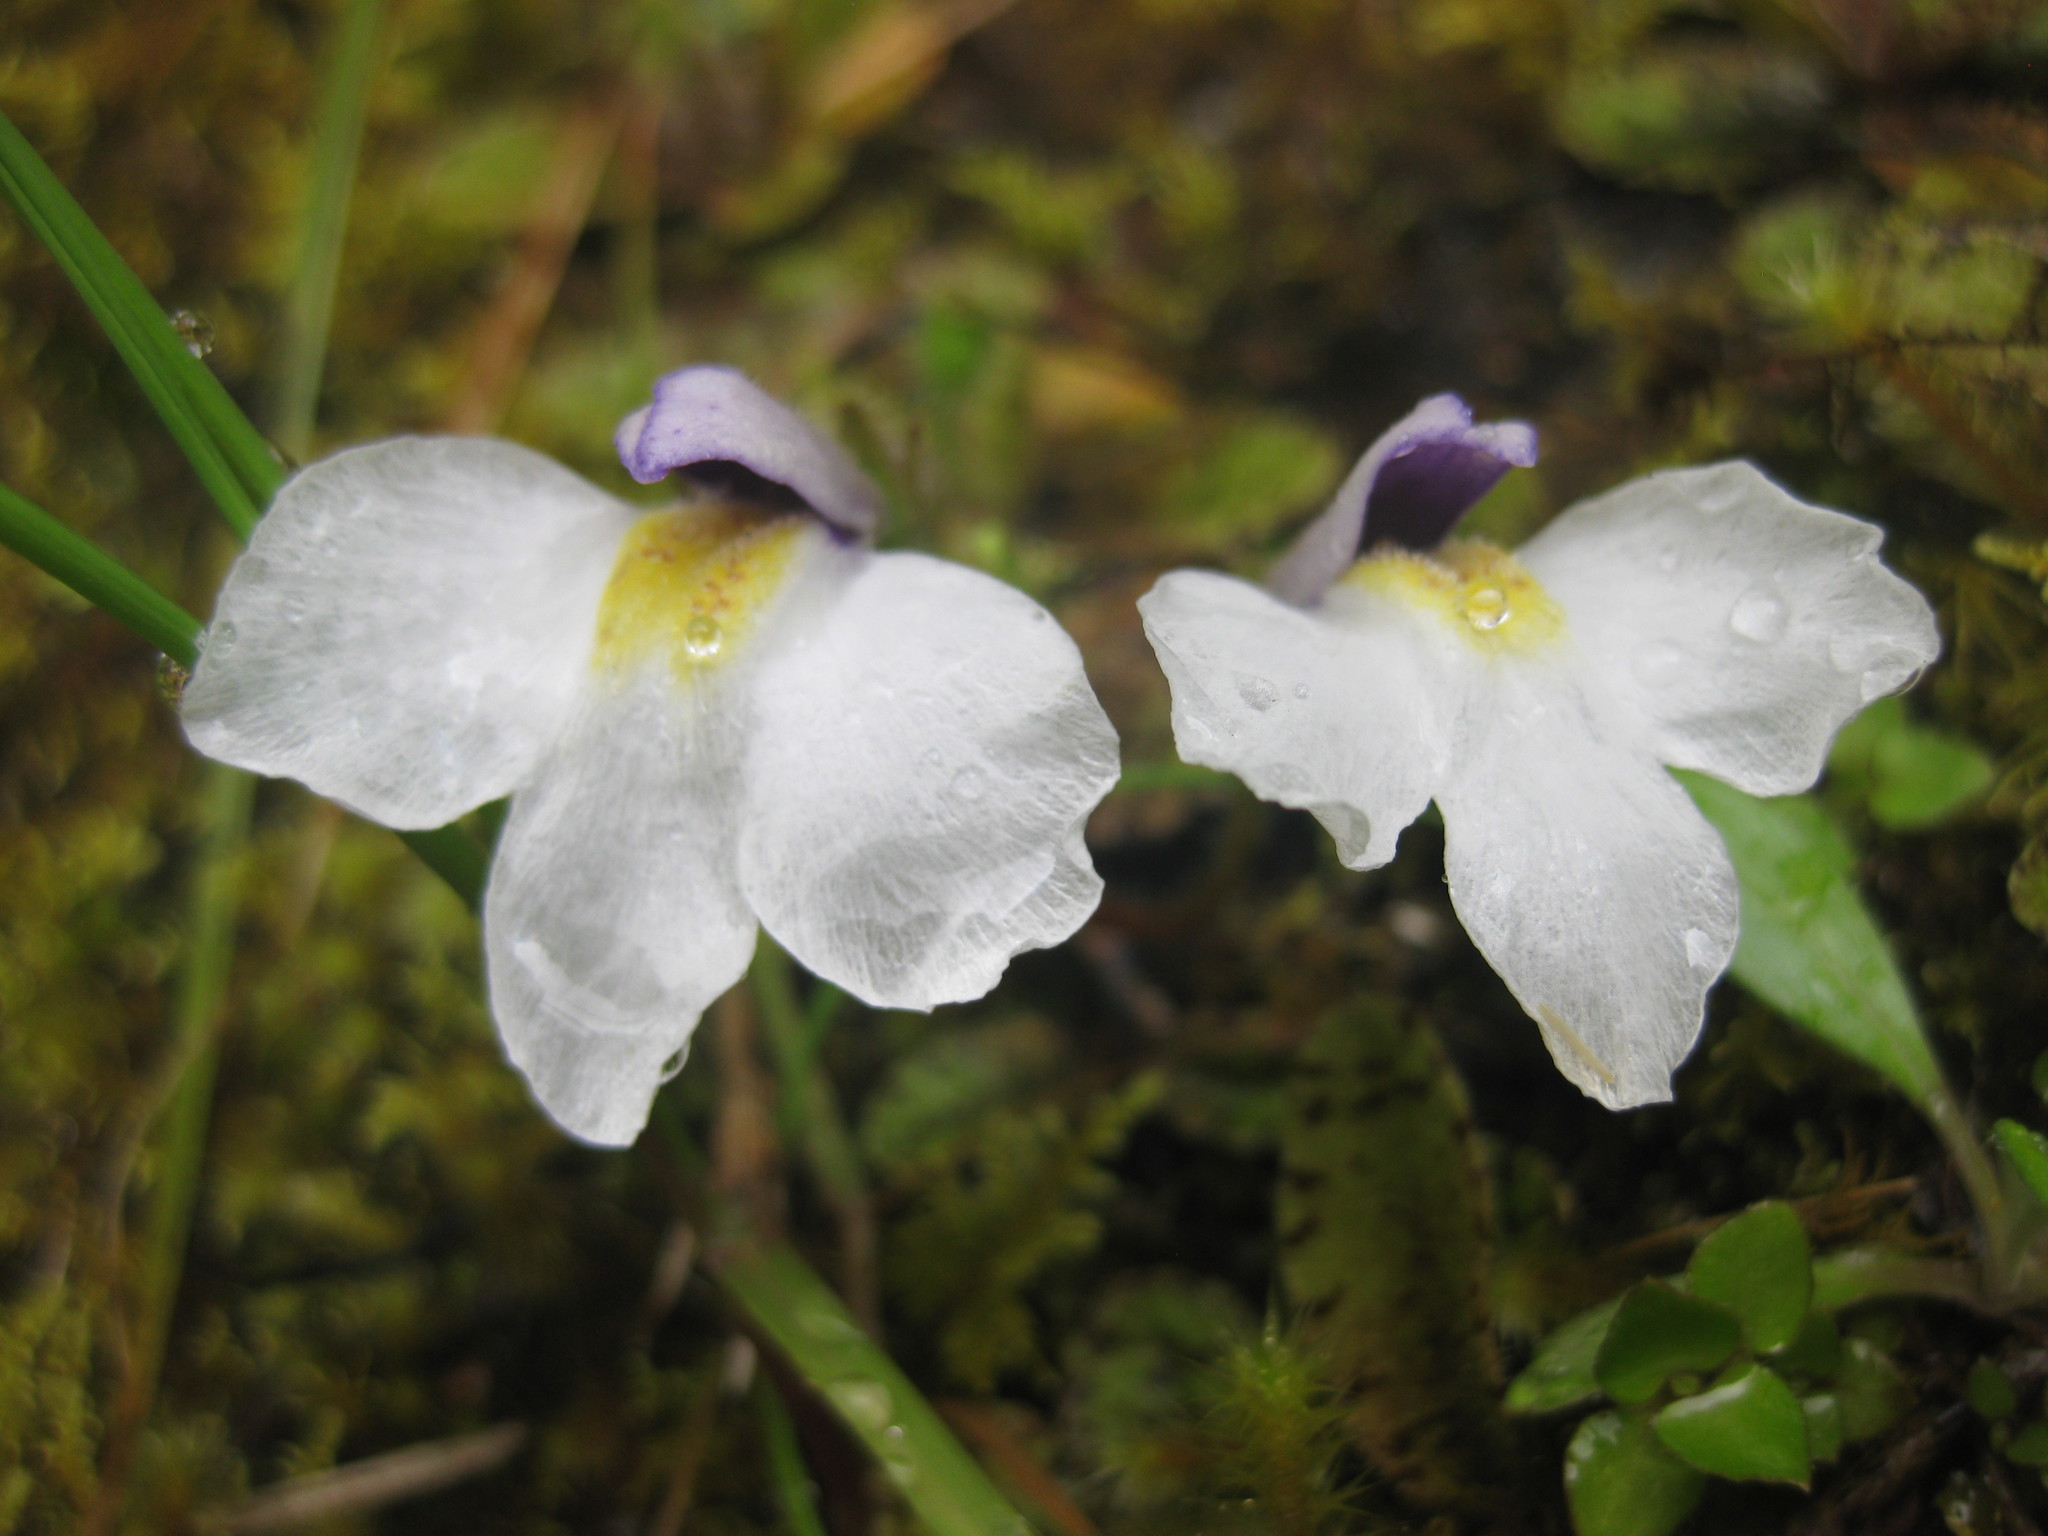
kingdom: Plantae
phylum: Tracheophyta
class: Magnoliopsida
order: Lamiales
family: Mazaceae
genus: Mazus
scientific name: Mazus radicans
